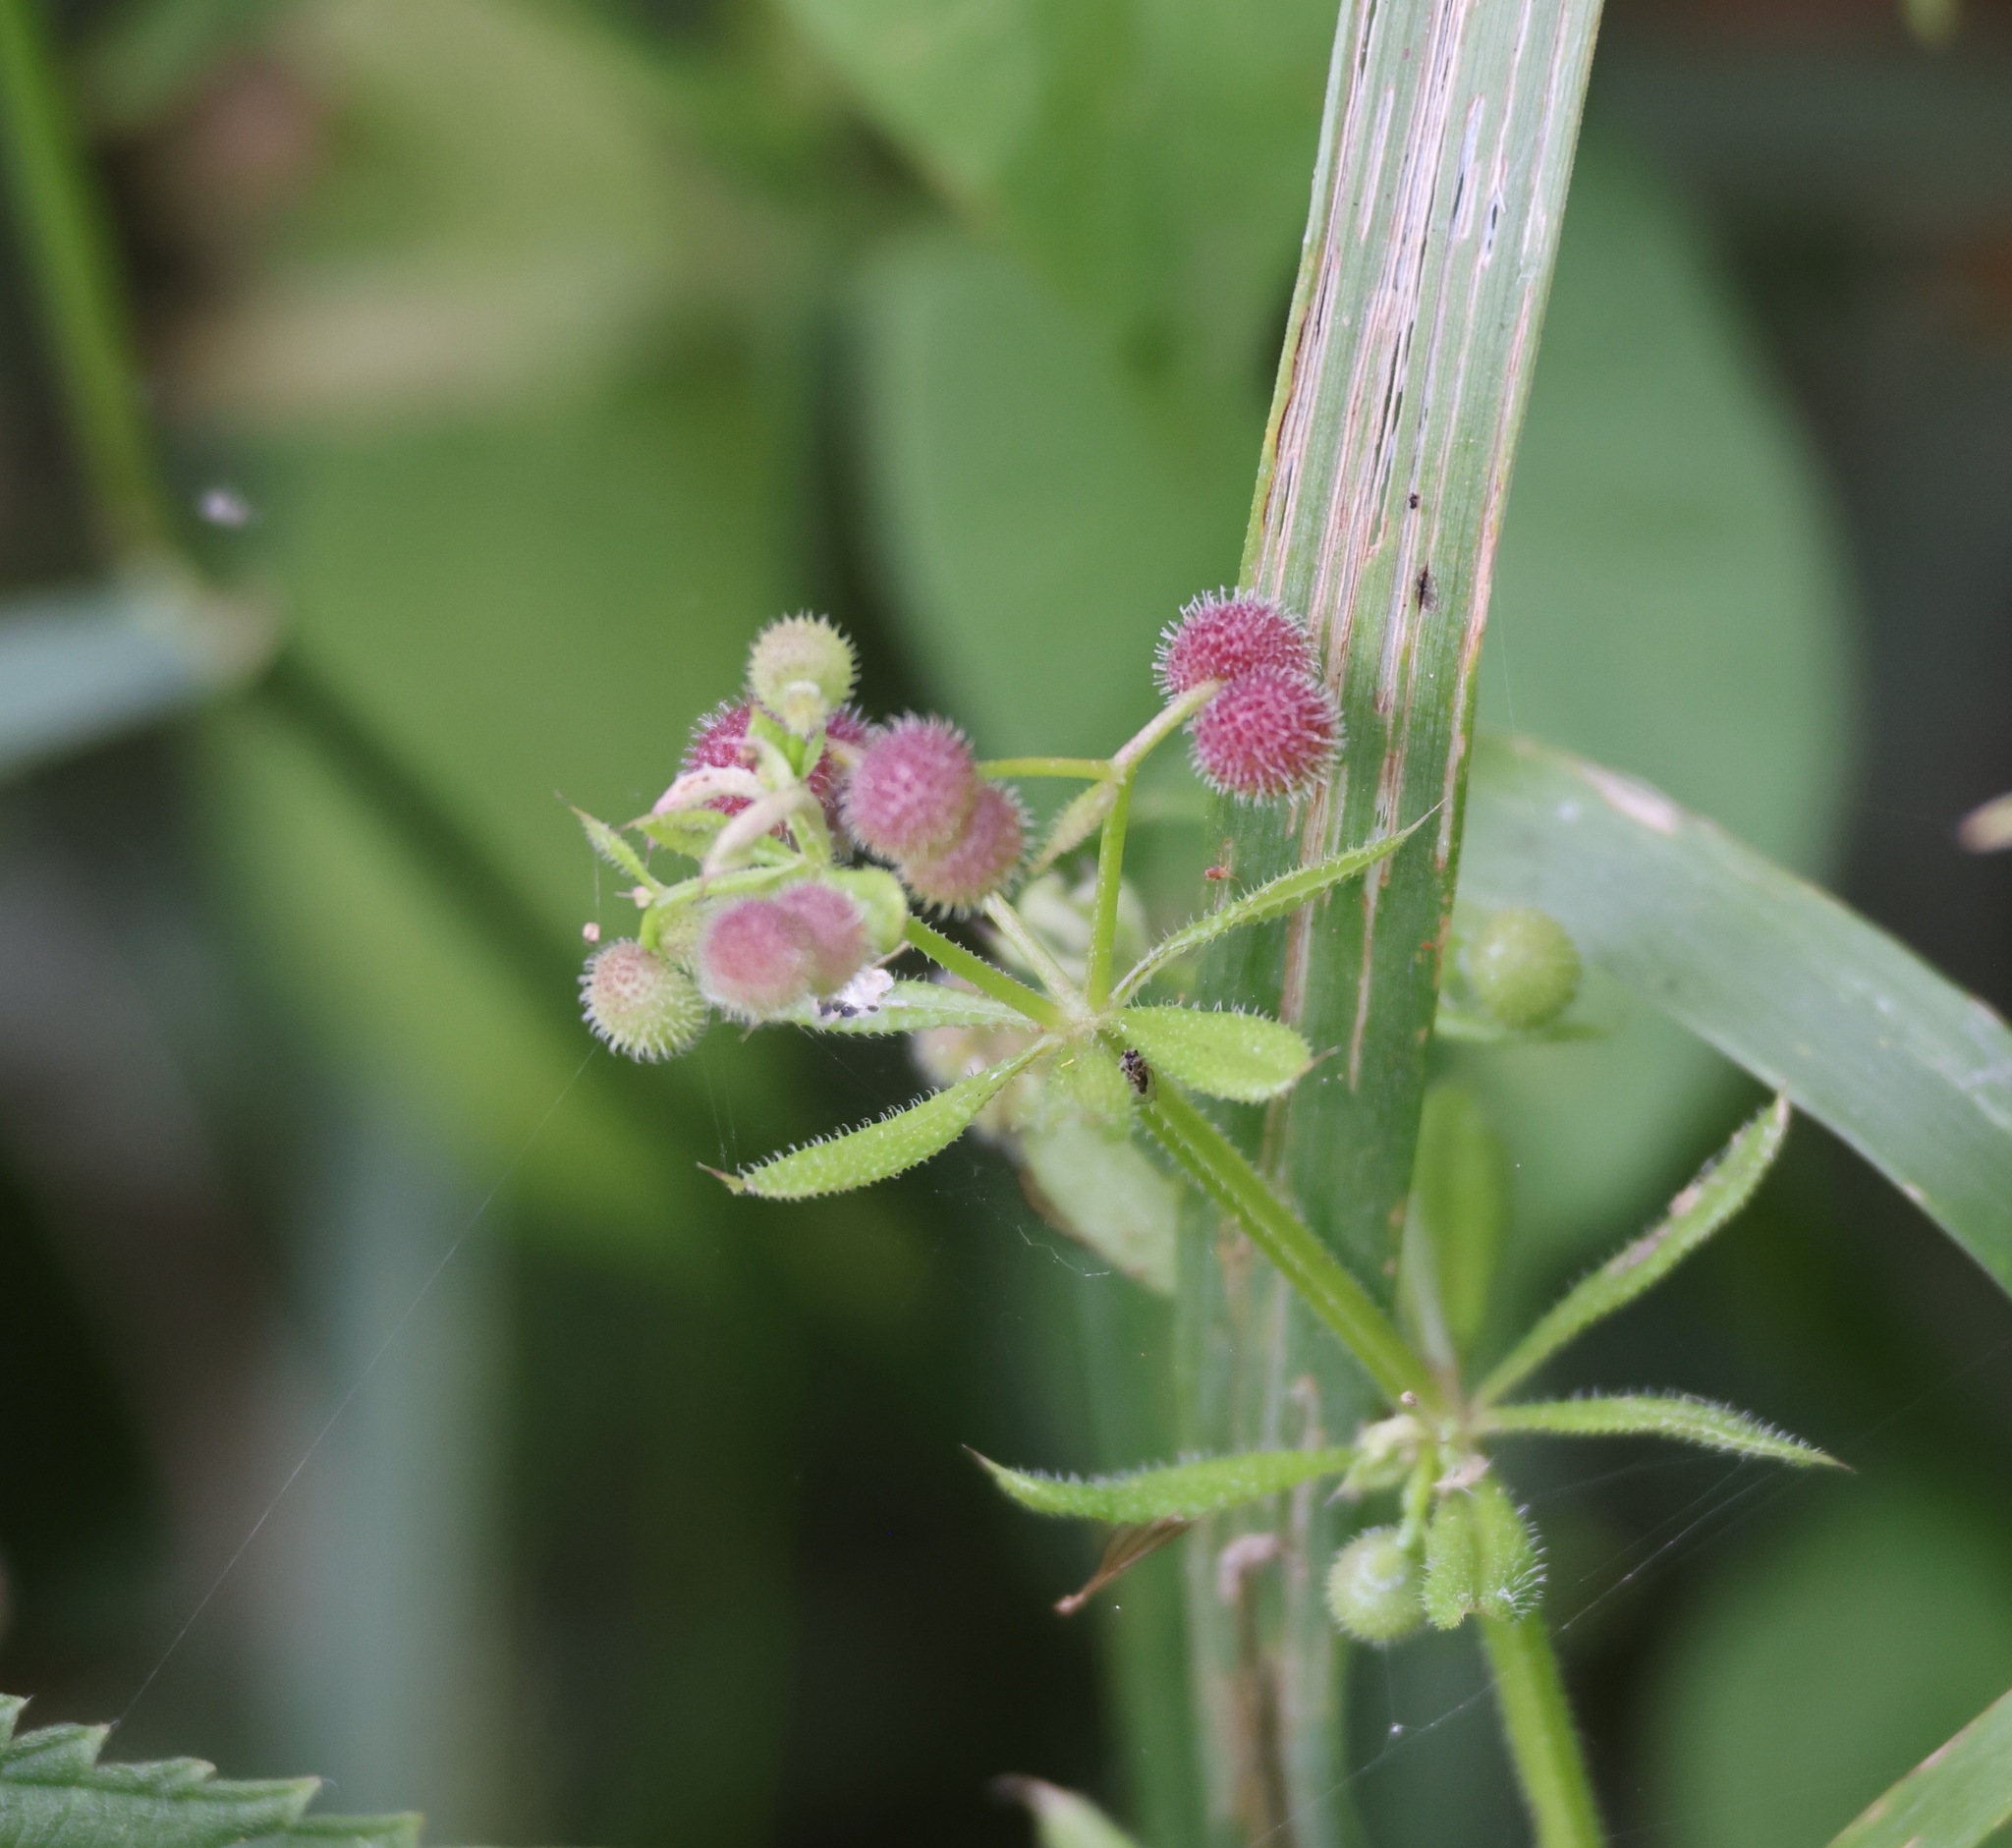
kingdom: Plantae
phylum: Tracheophyta
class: Magnoliopsida
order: Gentianales
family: Rubiaceae
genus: Galium
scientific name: Galium aparine
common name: Cleavers
